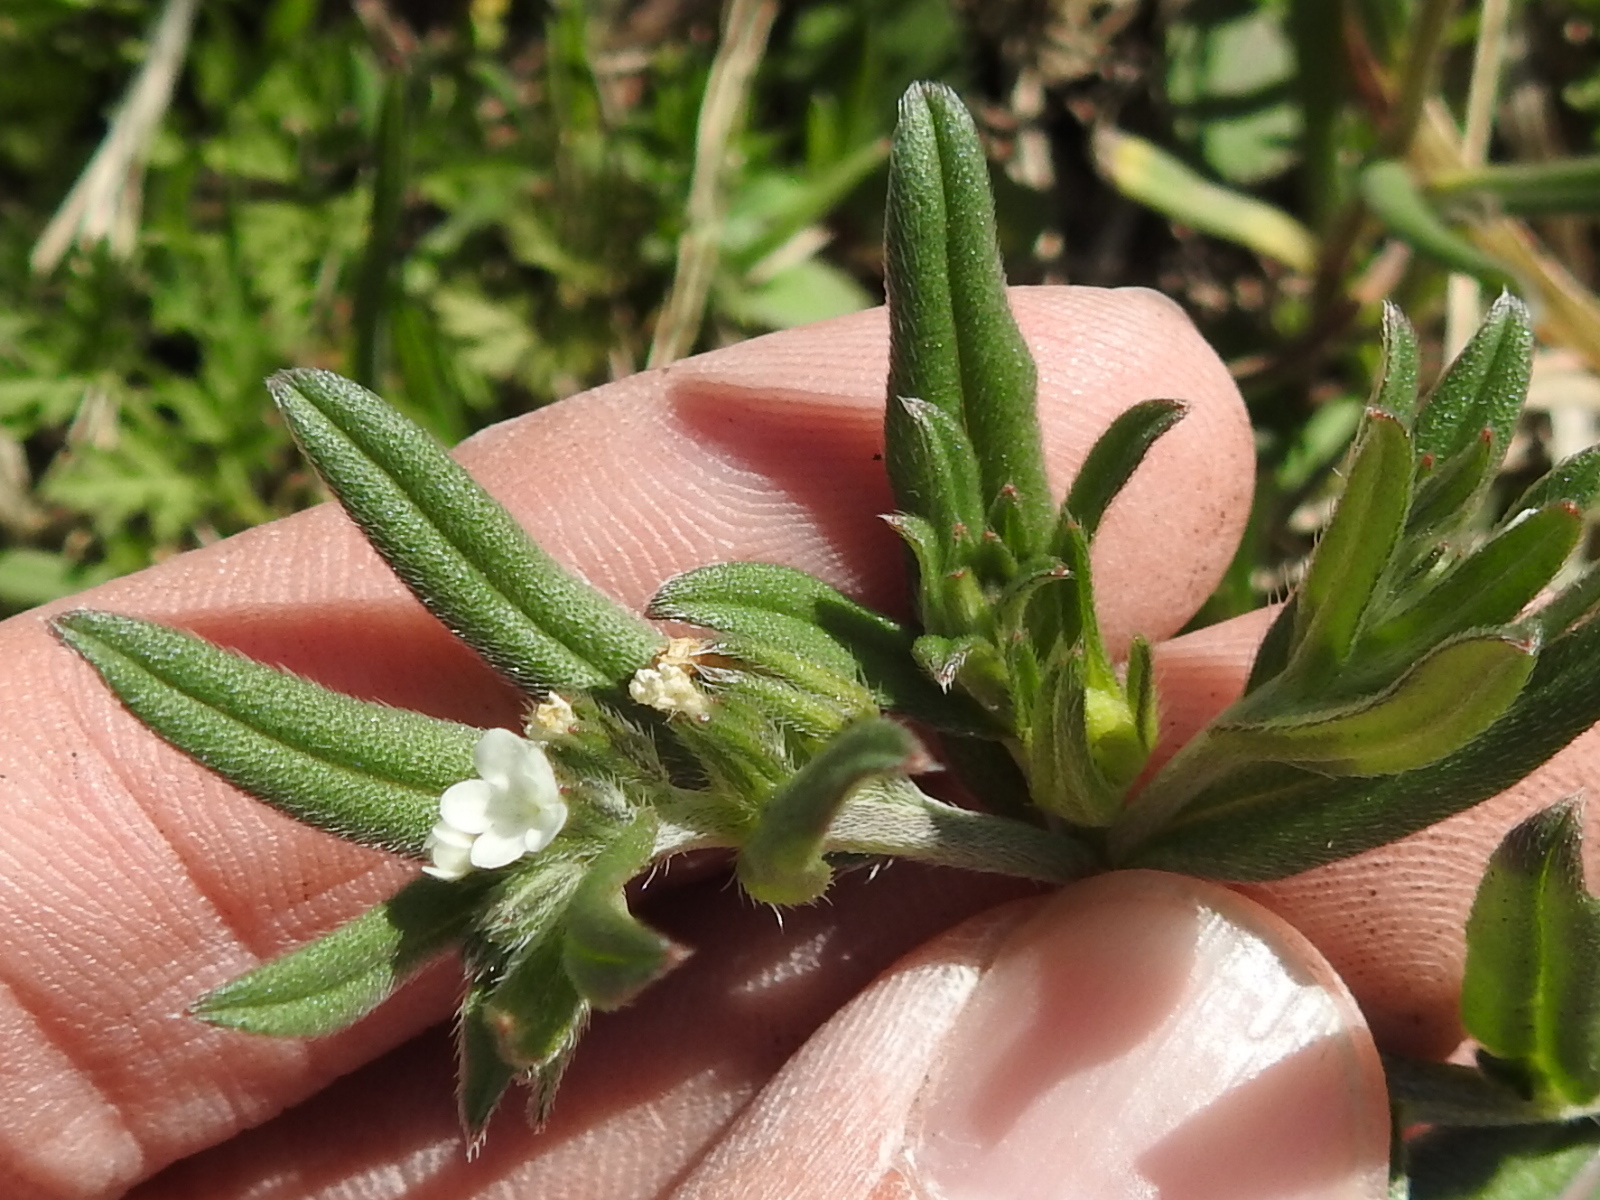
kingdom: Plantae
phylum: Tracheophyta
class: Magnoliopsida
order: Boraginales
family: Boraginaceae
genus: Buglossoides
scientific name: Buglossoides arvensis
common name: Corn gromwell
